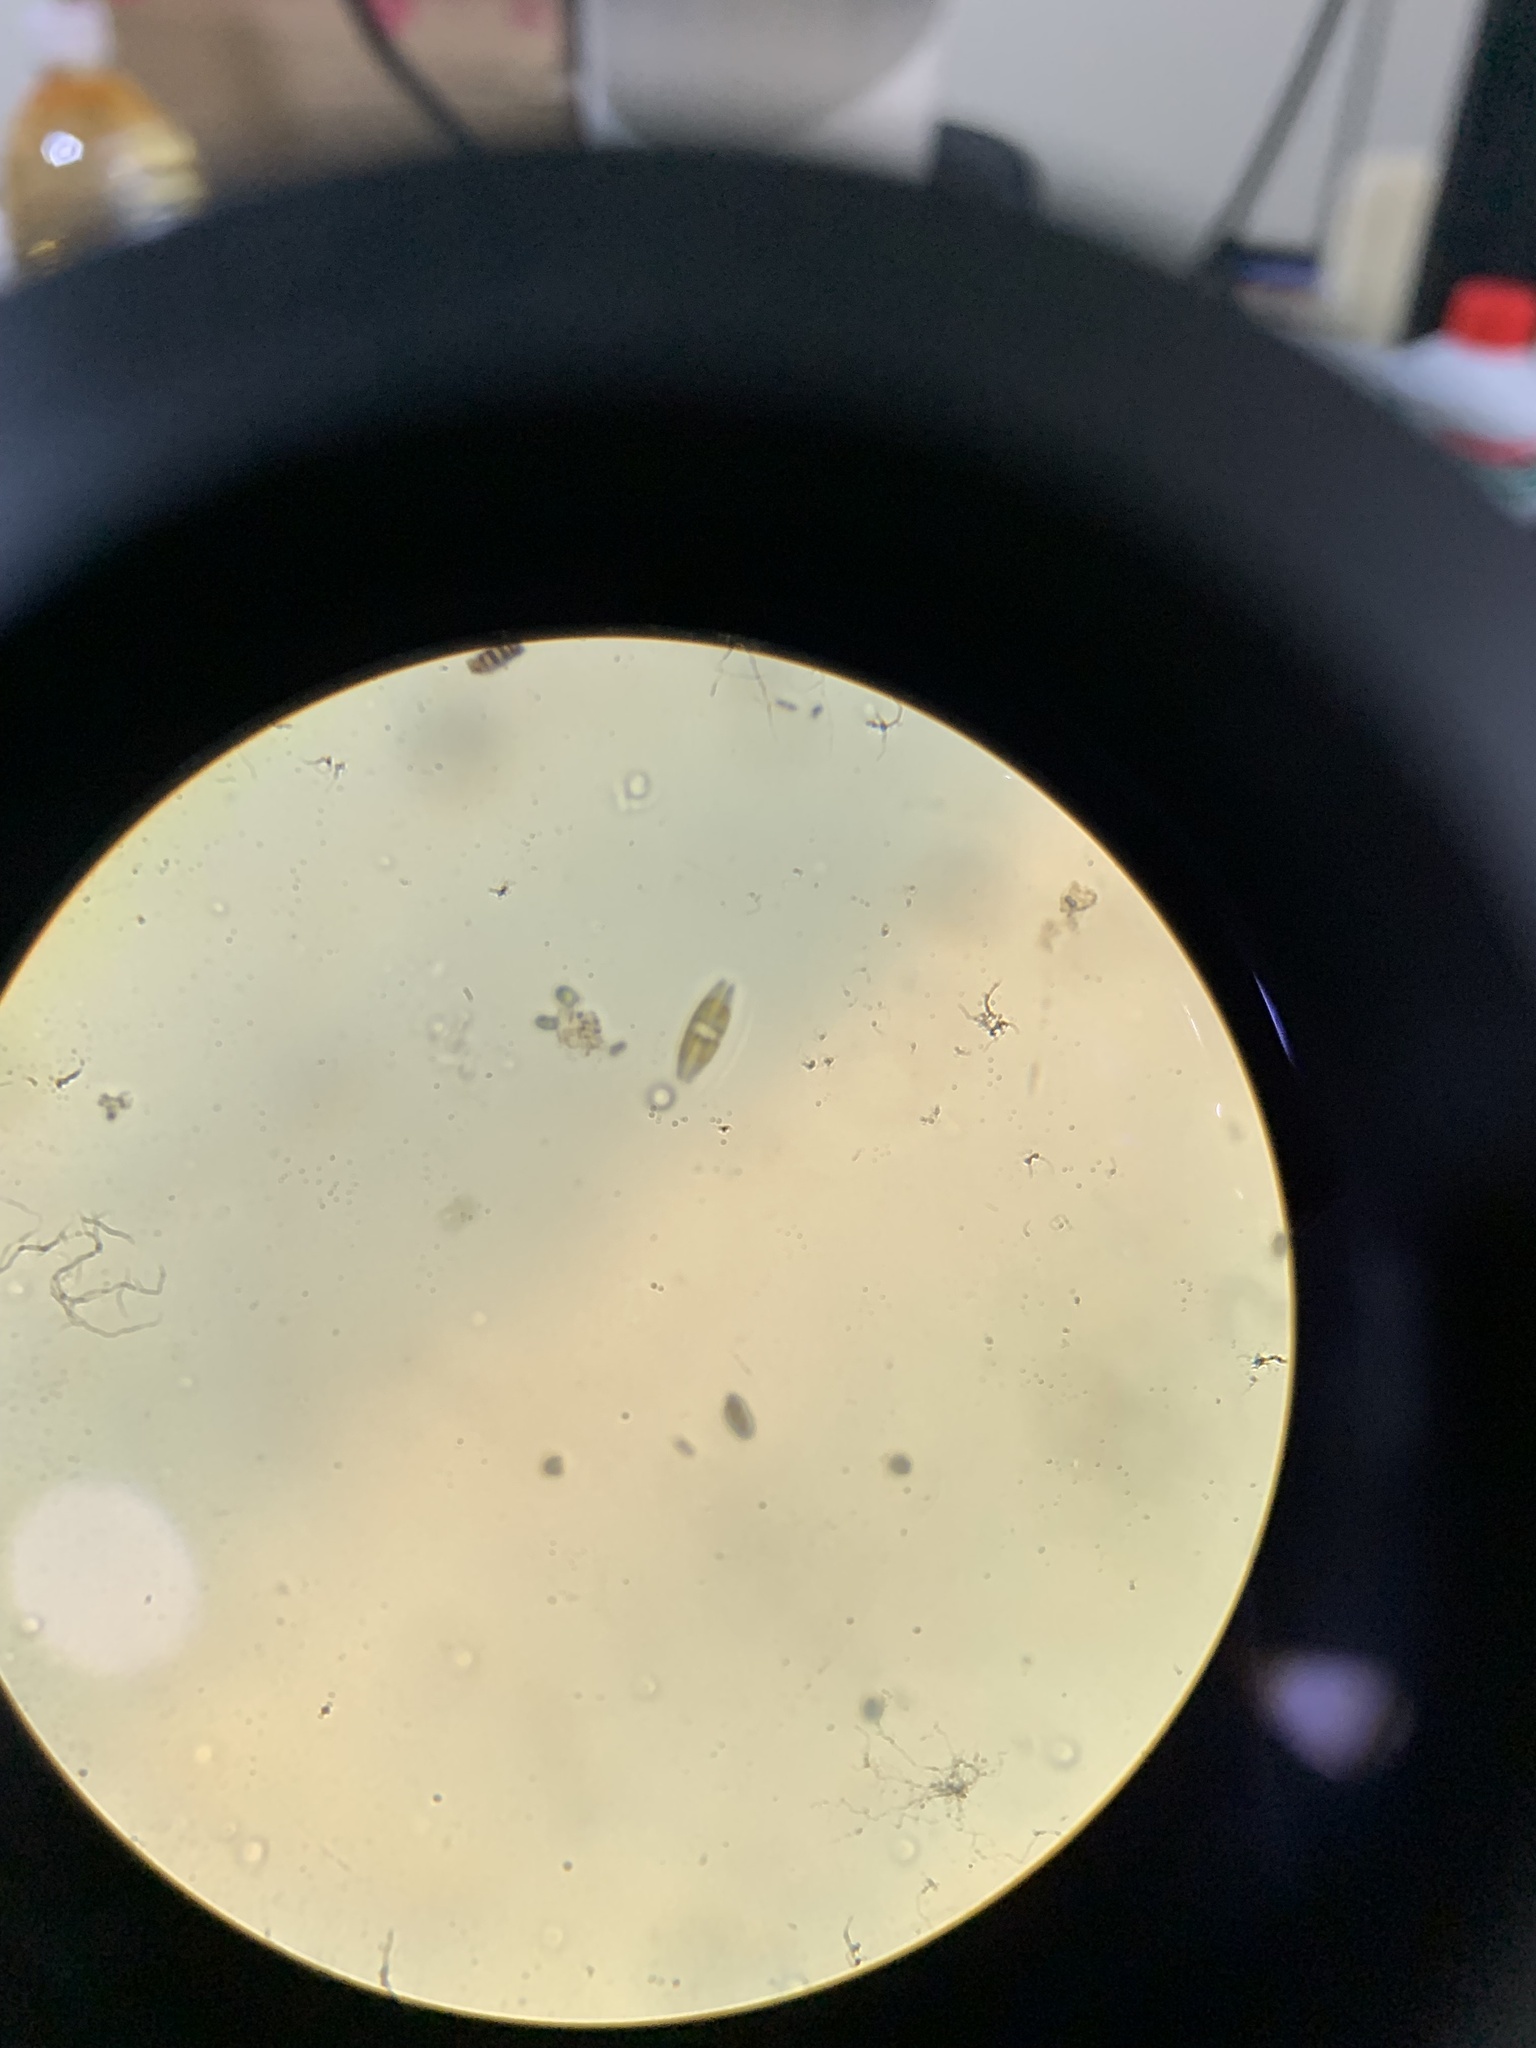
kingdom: Chromista
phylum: Ochrophyta
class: Bacillariophyceae
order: Naviculales
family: Naviculaceae
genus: Navicula
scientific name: Navicula
